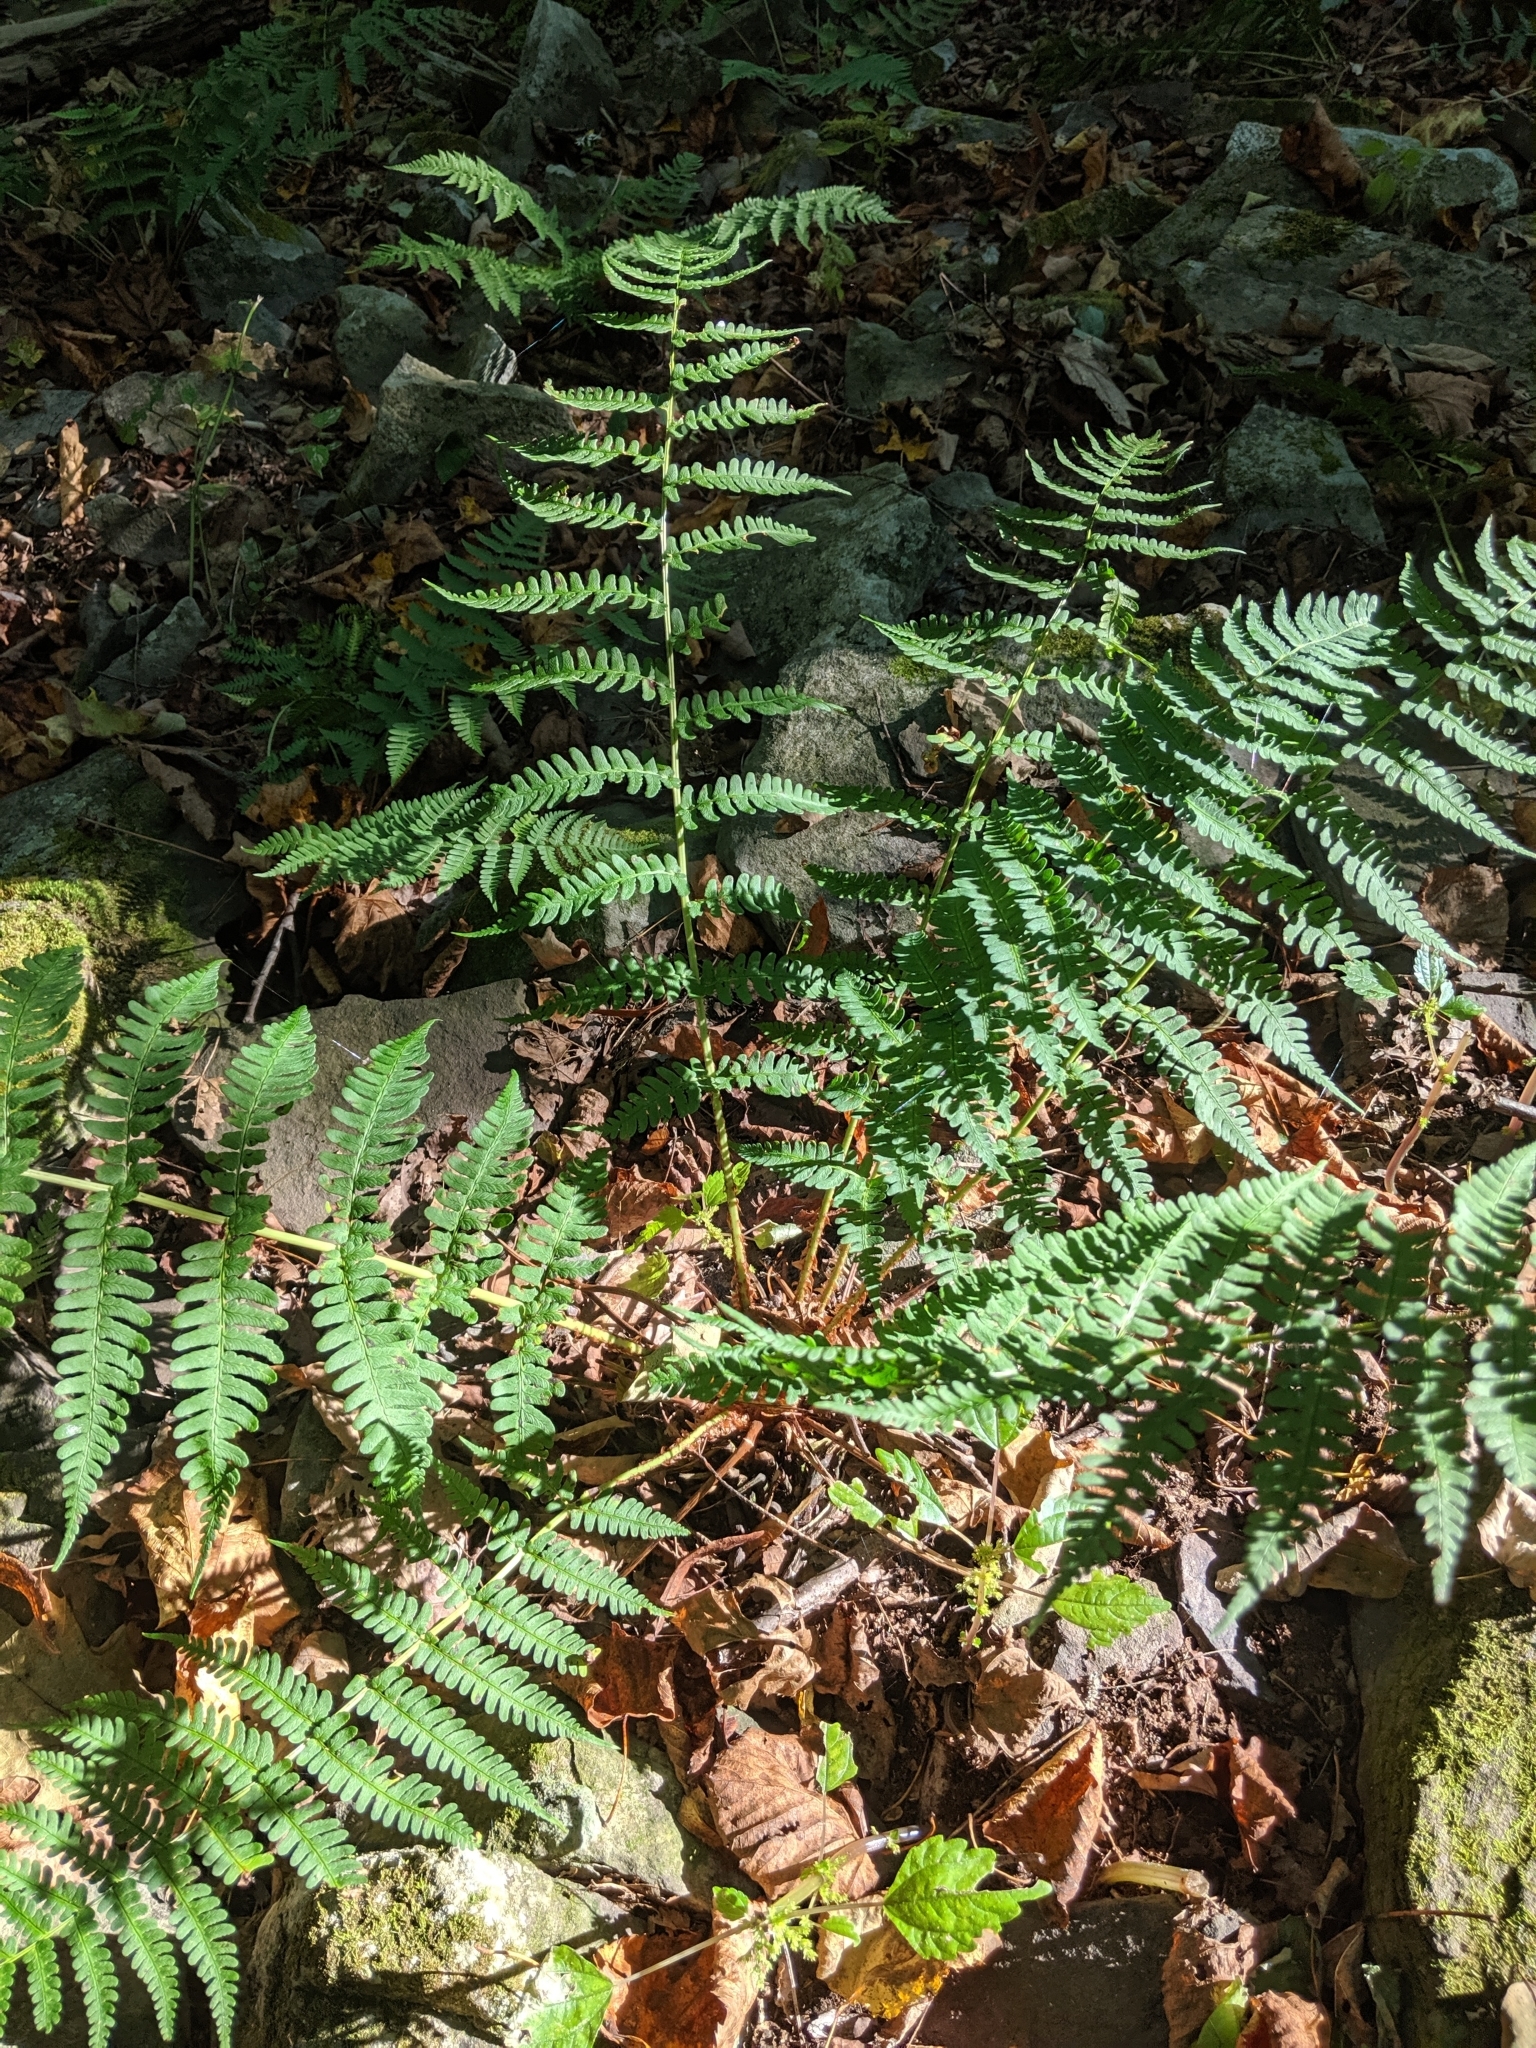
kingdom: Plantae
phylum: Tracheophyta
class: Polypodiopsida
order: Polypodiales
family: Dryopteridaceae
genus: Dryopteris
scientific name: Dryopteris marginalis
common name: Marginal wood fern
